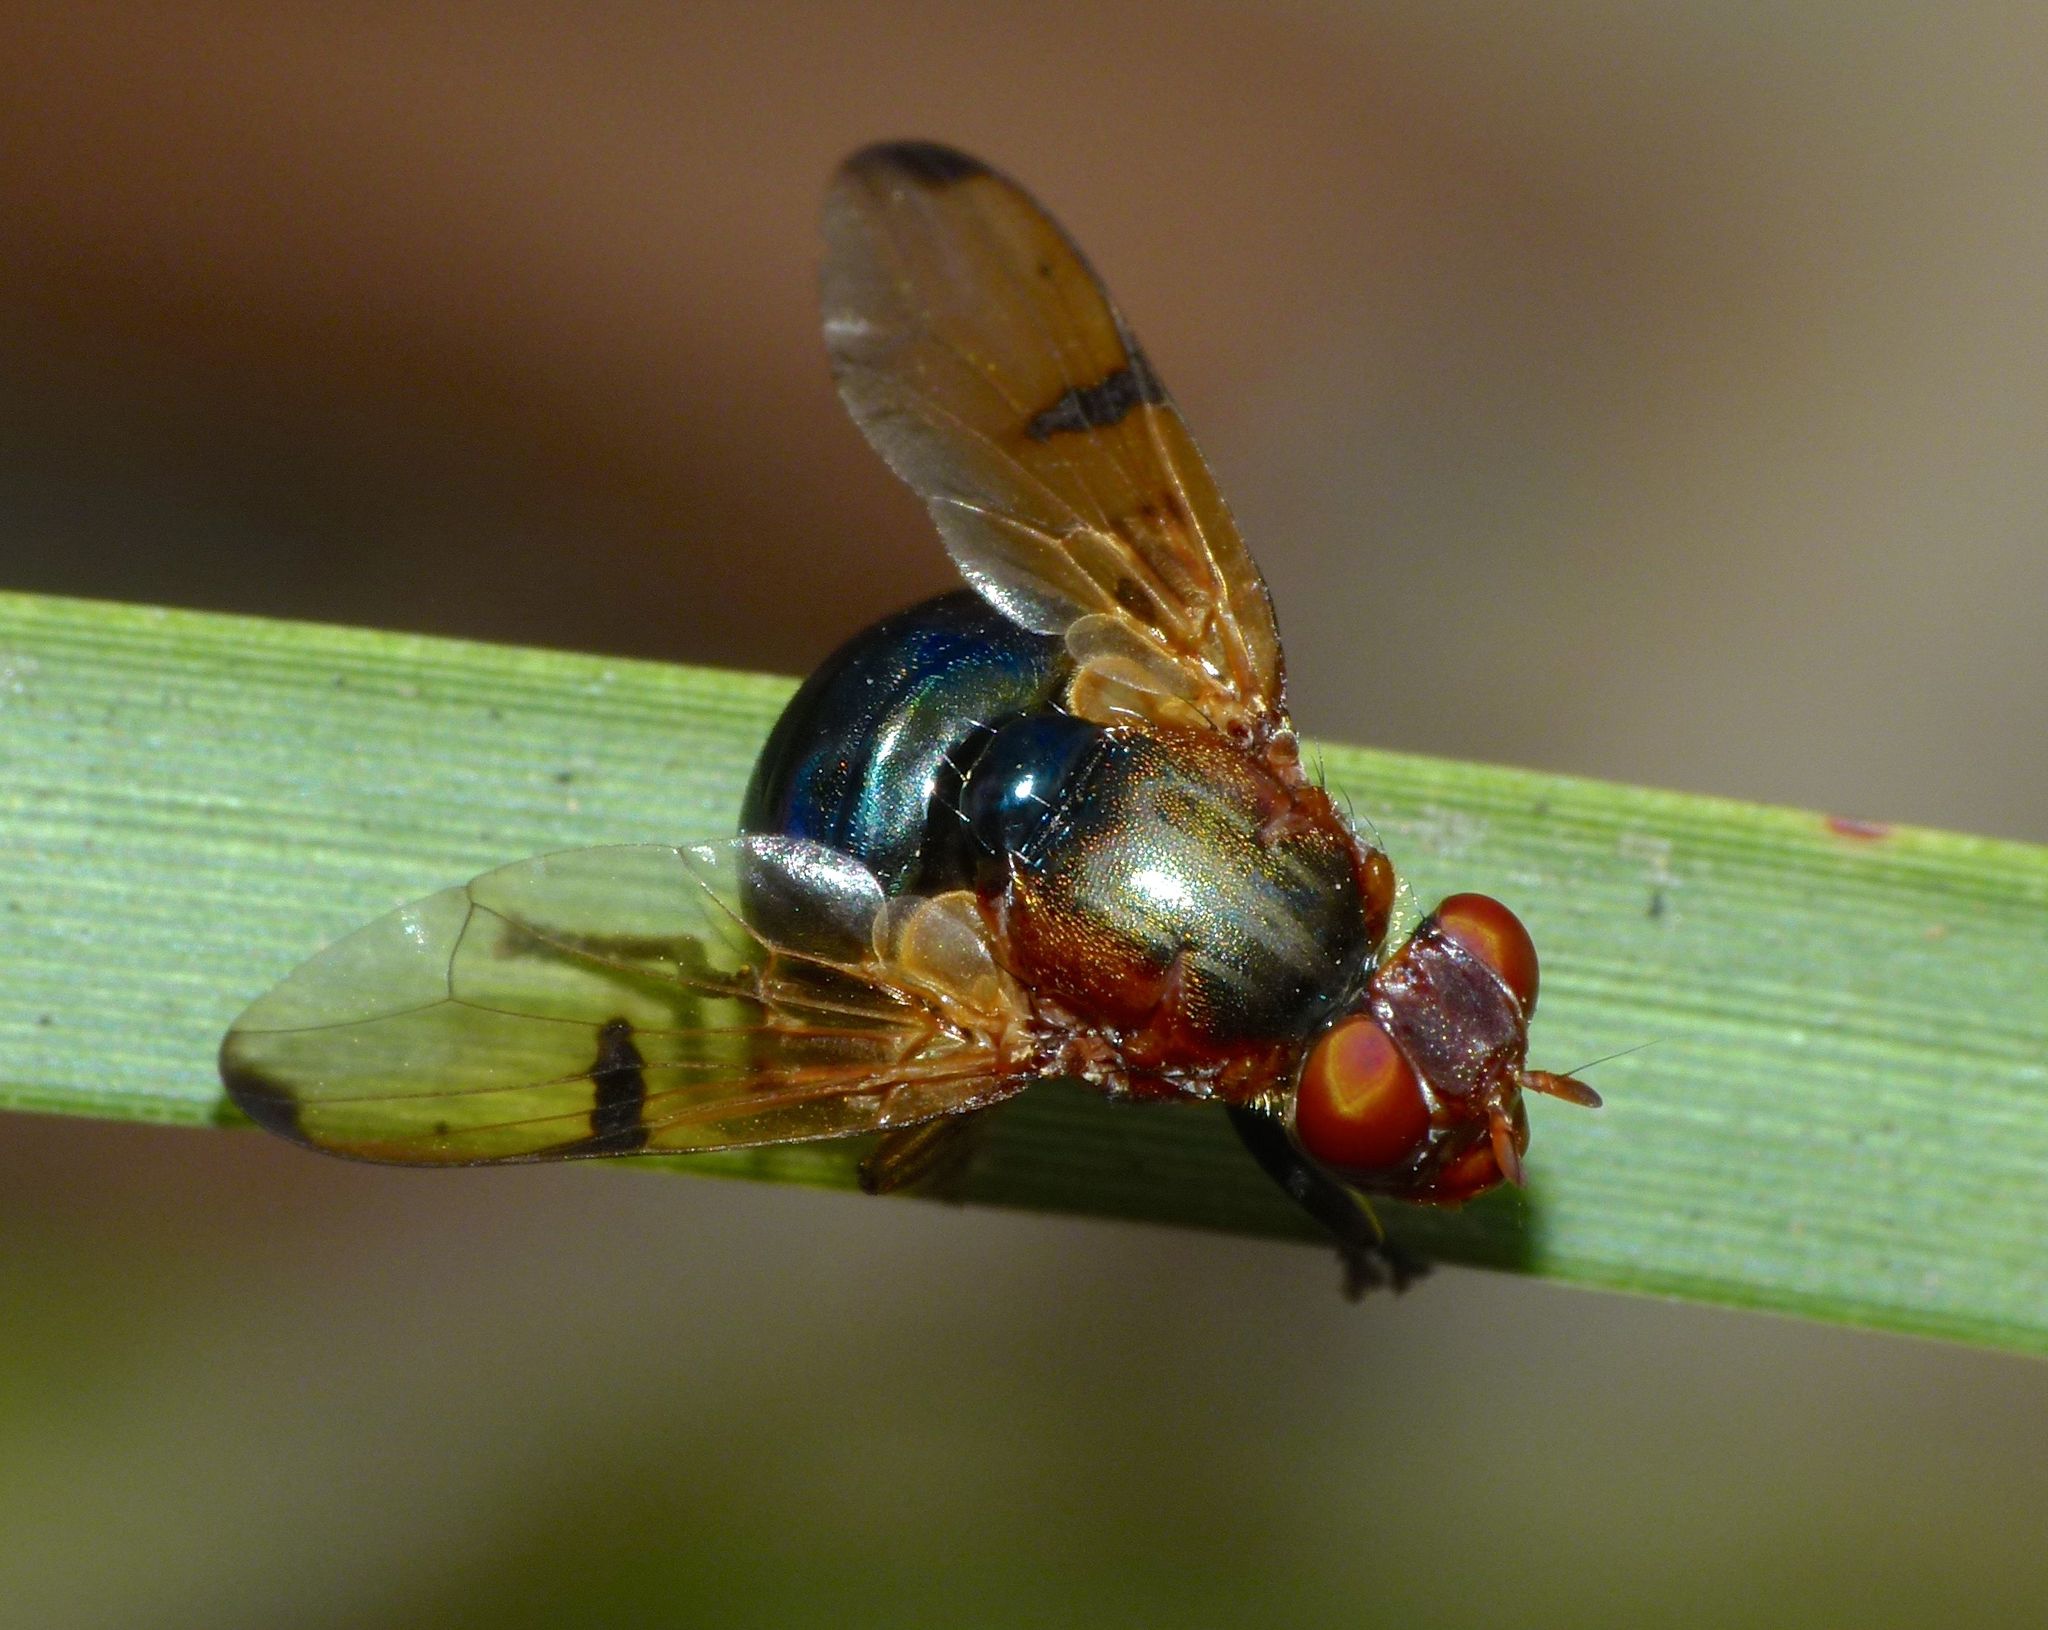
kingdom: Animalia
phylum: Arthropoda
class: Insecta
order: Diptera
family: Platystomatidae
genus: Lamprogaster
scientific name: Lamprogaster corusca
